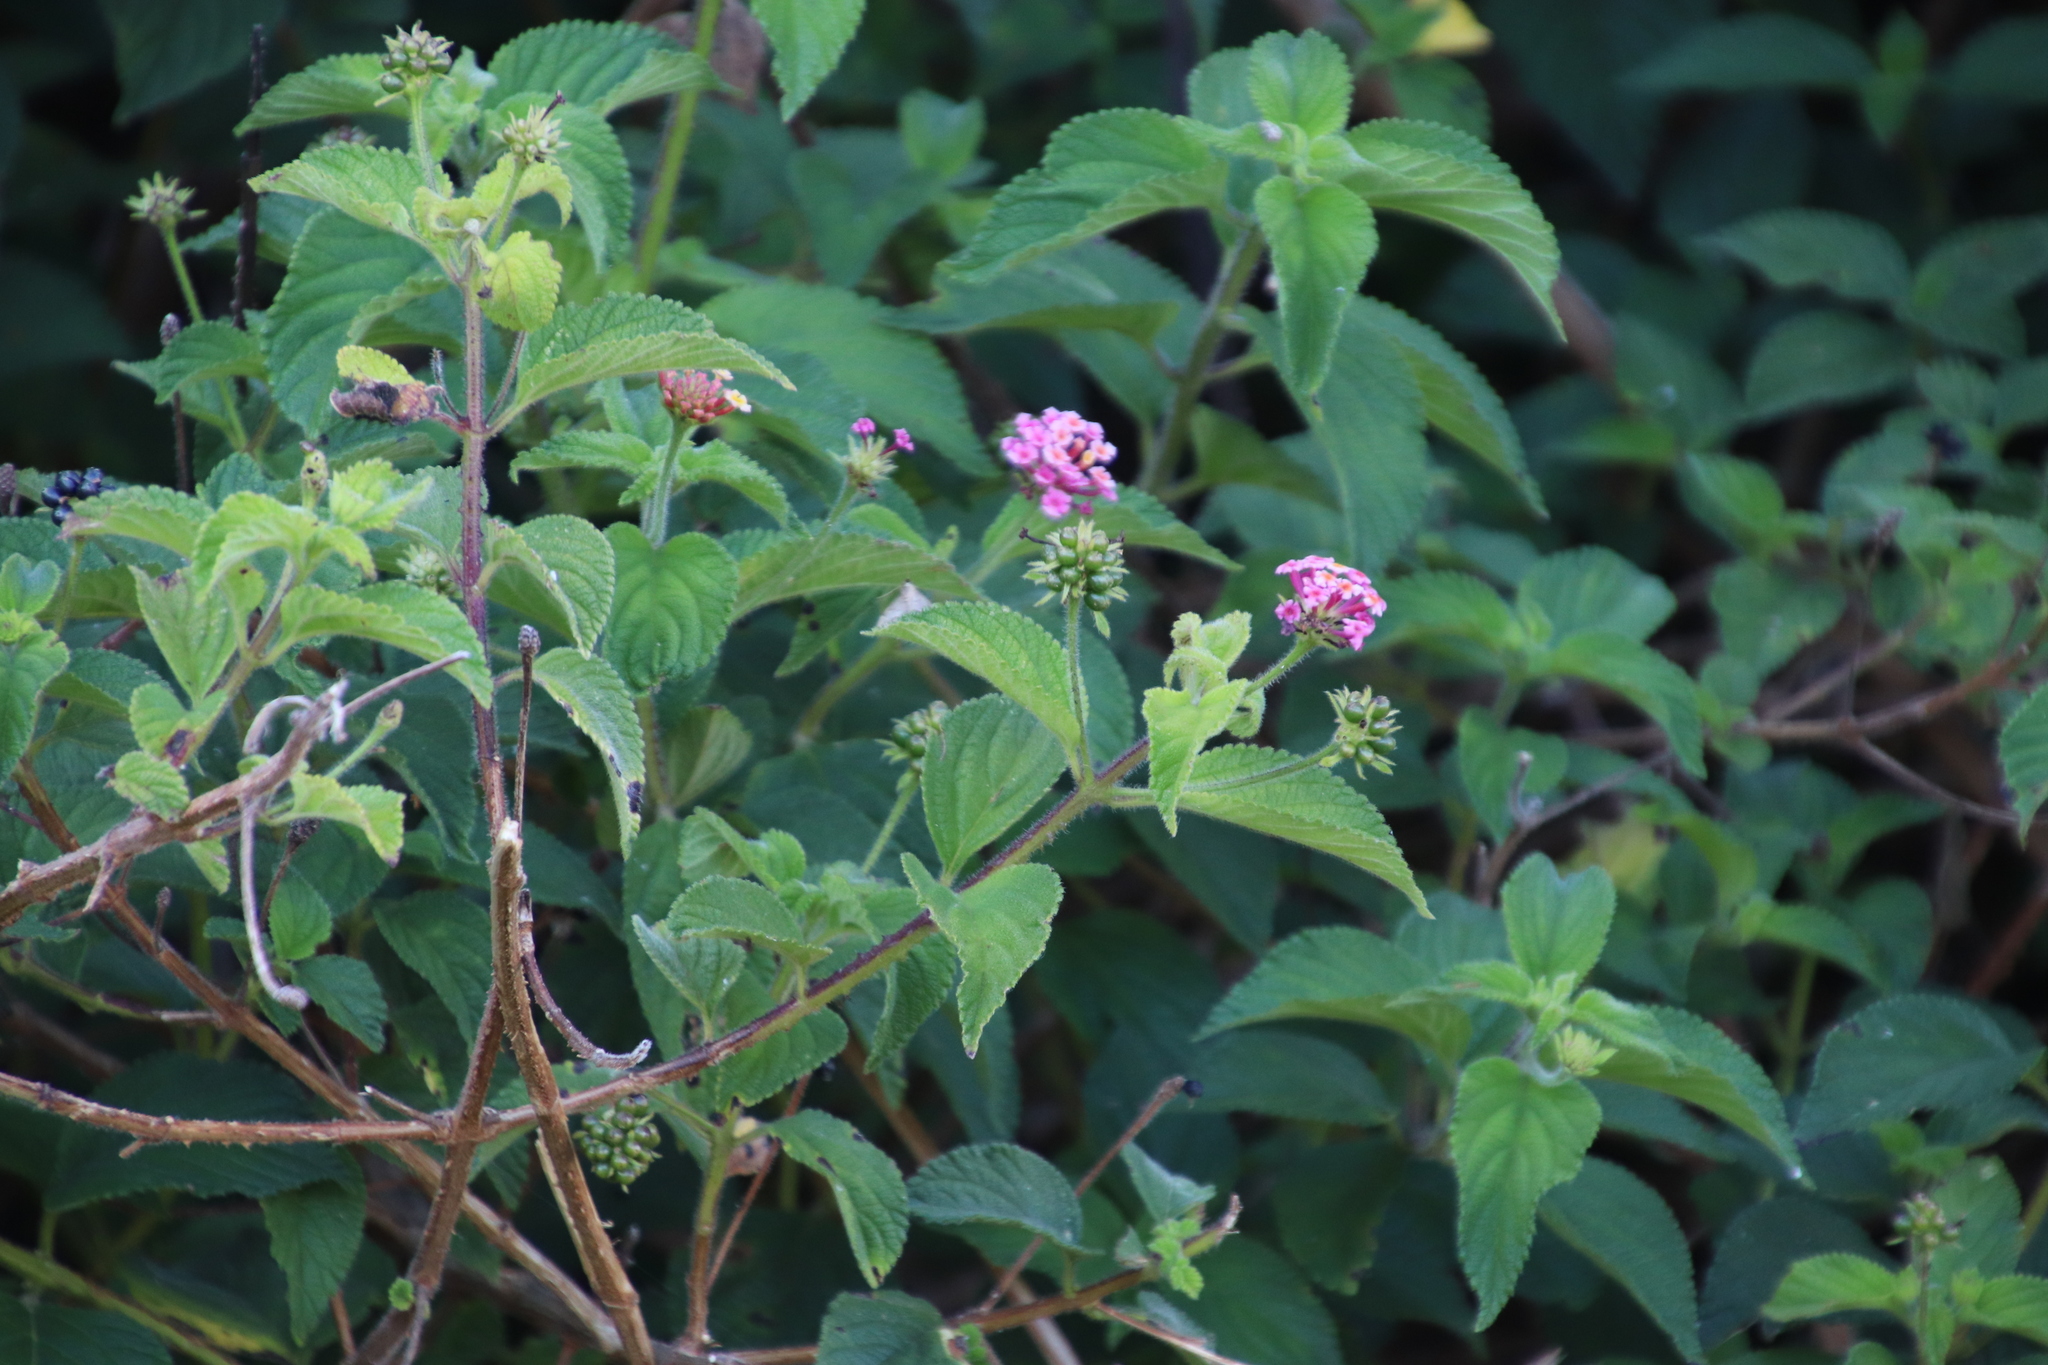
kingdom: Plantae
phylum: Tracheophyta
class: Magnoliopsida
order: Lamiales
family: Verbenaceae
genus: Lantana
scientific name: Lantana camara
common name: Lantana
